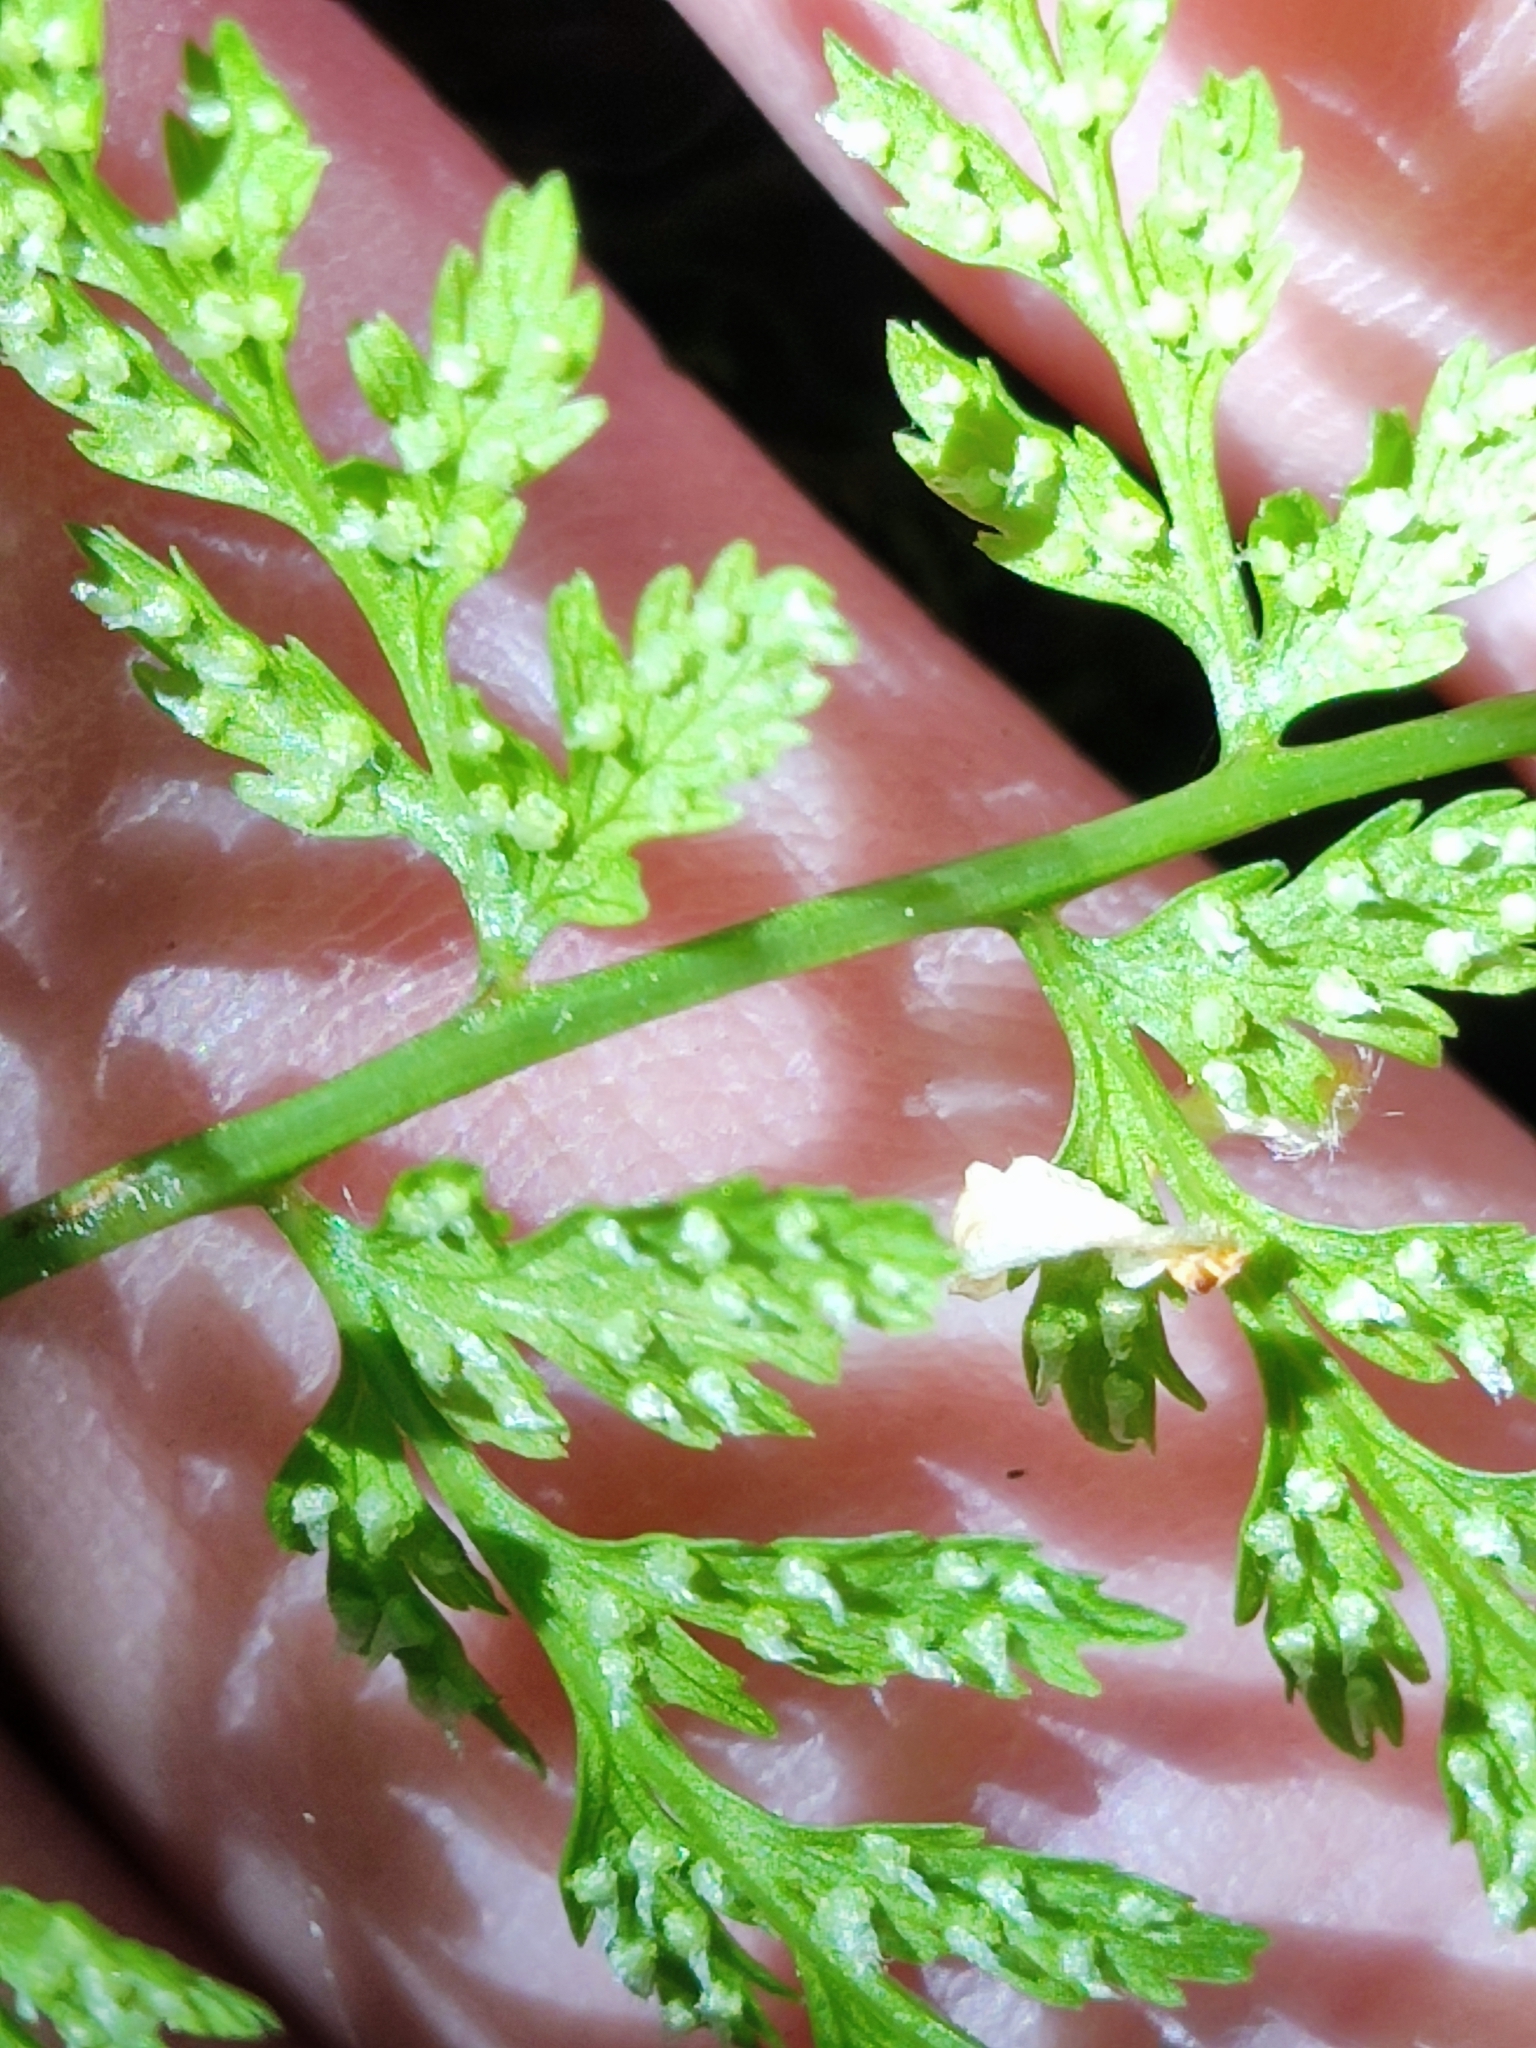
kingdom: Plantae
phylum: Tracheophyta
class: Polypodiopsida
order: Polypodiales
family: Cystopteridaceae
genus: Cystopteris
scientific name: Cystopteris fragilis
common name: Brittle bladder fern
